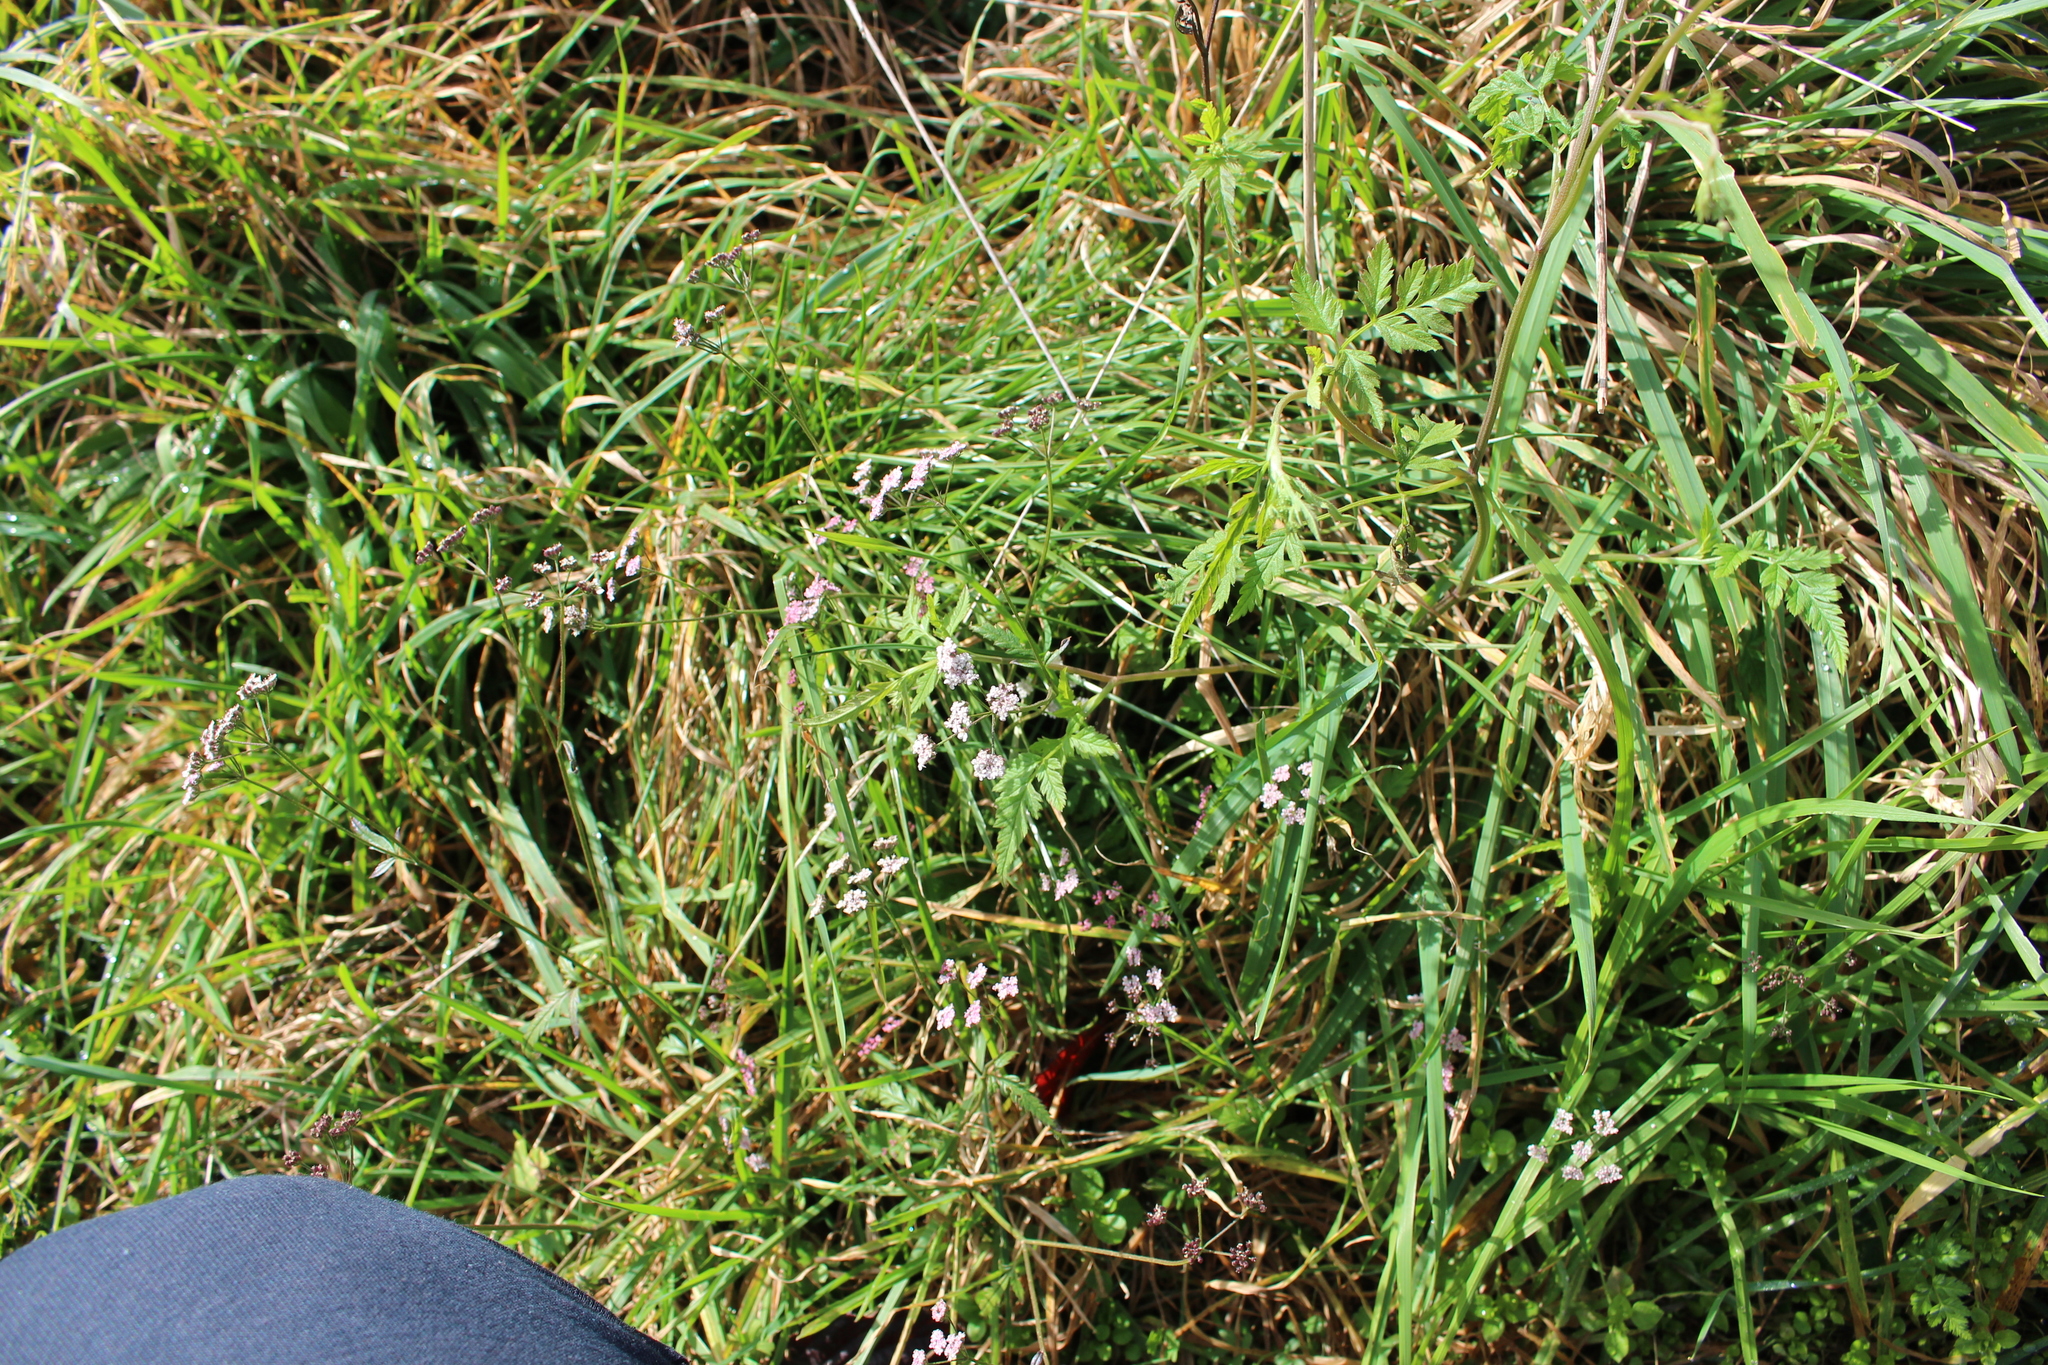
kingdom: Plantae
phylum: Tracheophyta
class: Magnoliopsida
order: Apiales
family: Apiaceae
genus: Torilis
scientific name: Torilis arvensis
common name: Spreading hedge-parsley
